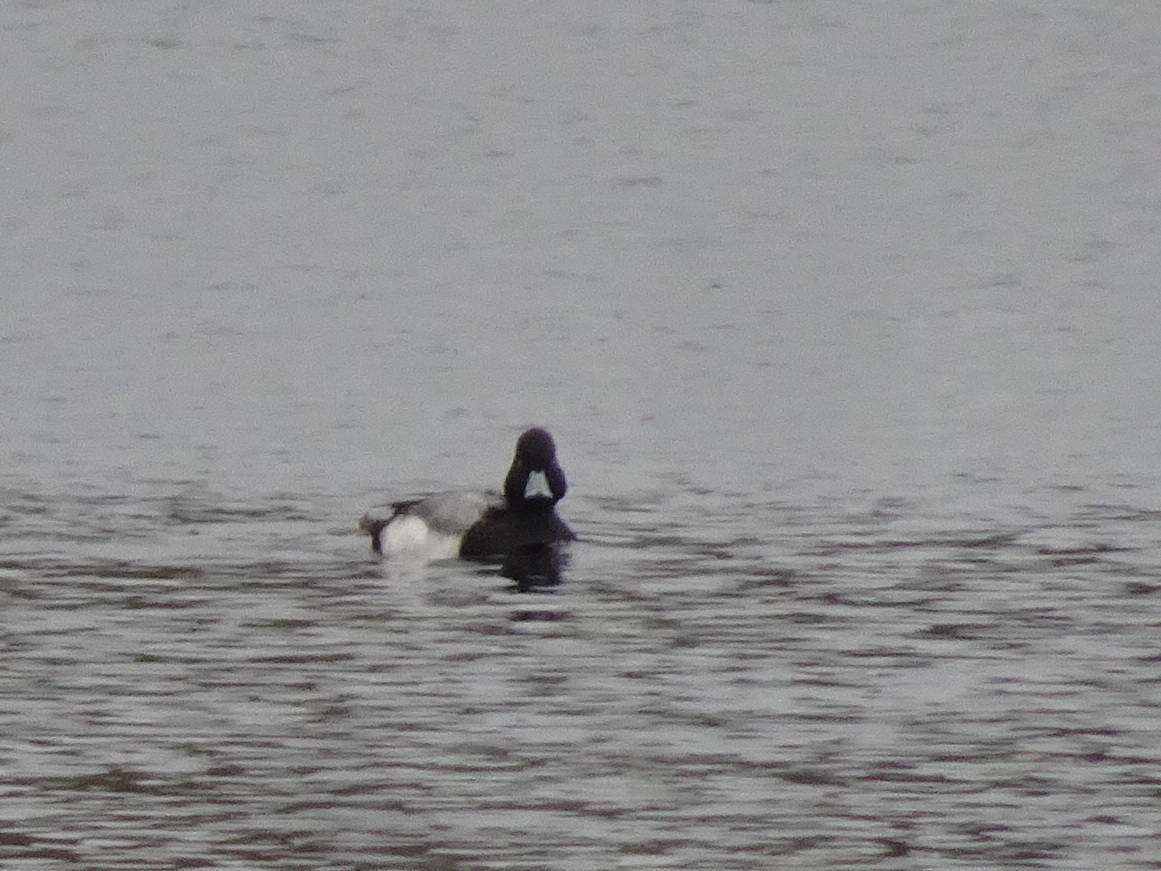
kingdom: Animalia
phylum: Chordata
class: Aves
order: Anseriformes
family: Anatidae
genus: Aythya
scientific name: Aythya affinis
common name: Lesser scaup
